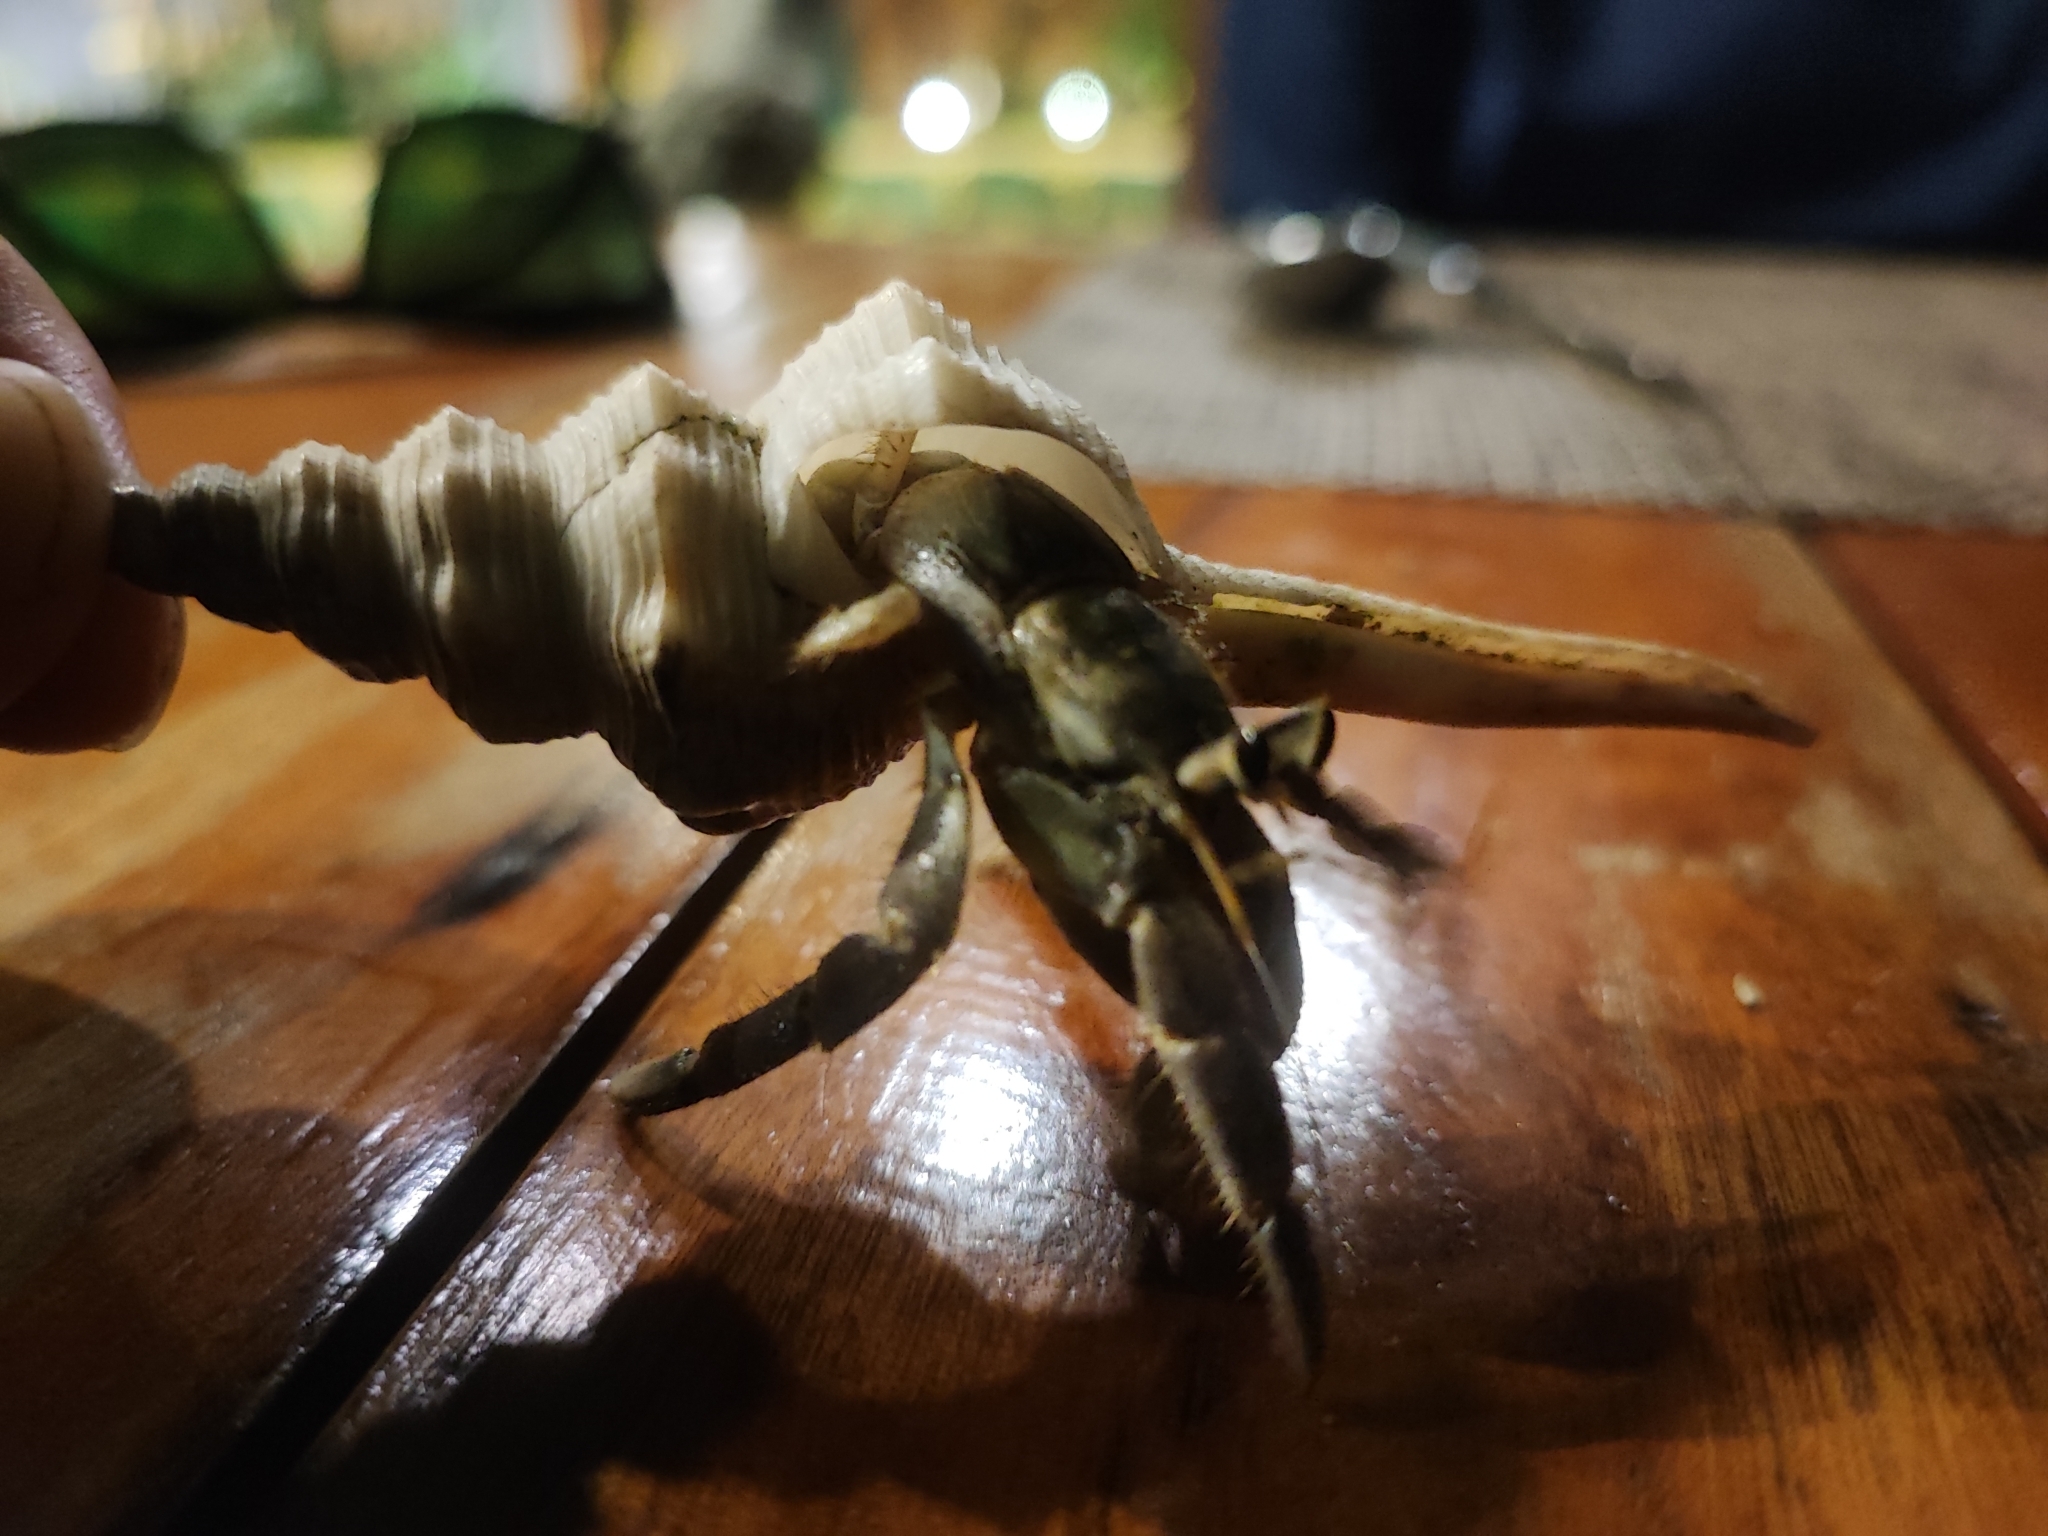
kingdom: Animalia
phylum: Arthropoda
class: Malacostraca
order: Decapoda
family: Coenobitidae
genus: Coenobita
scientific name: Coenobita rugosus
